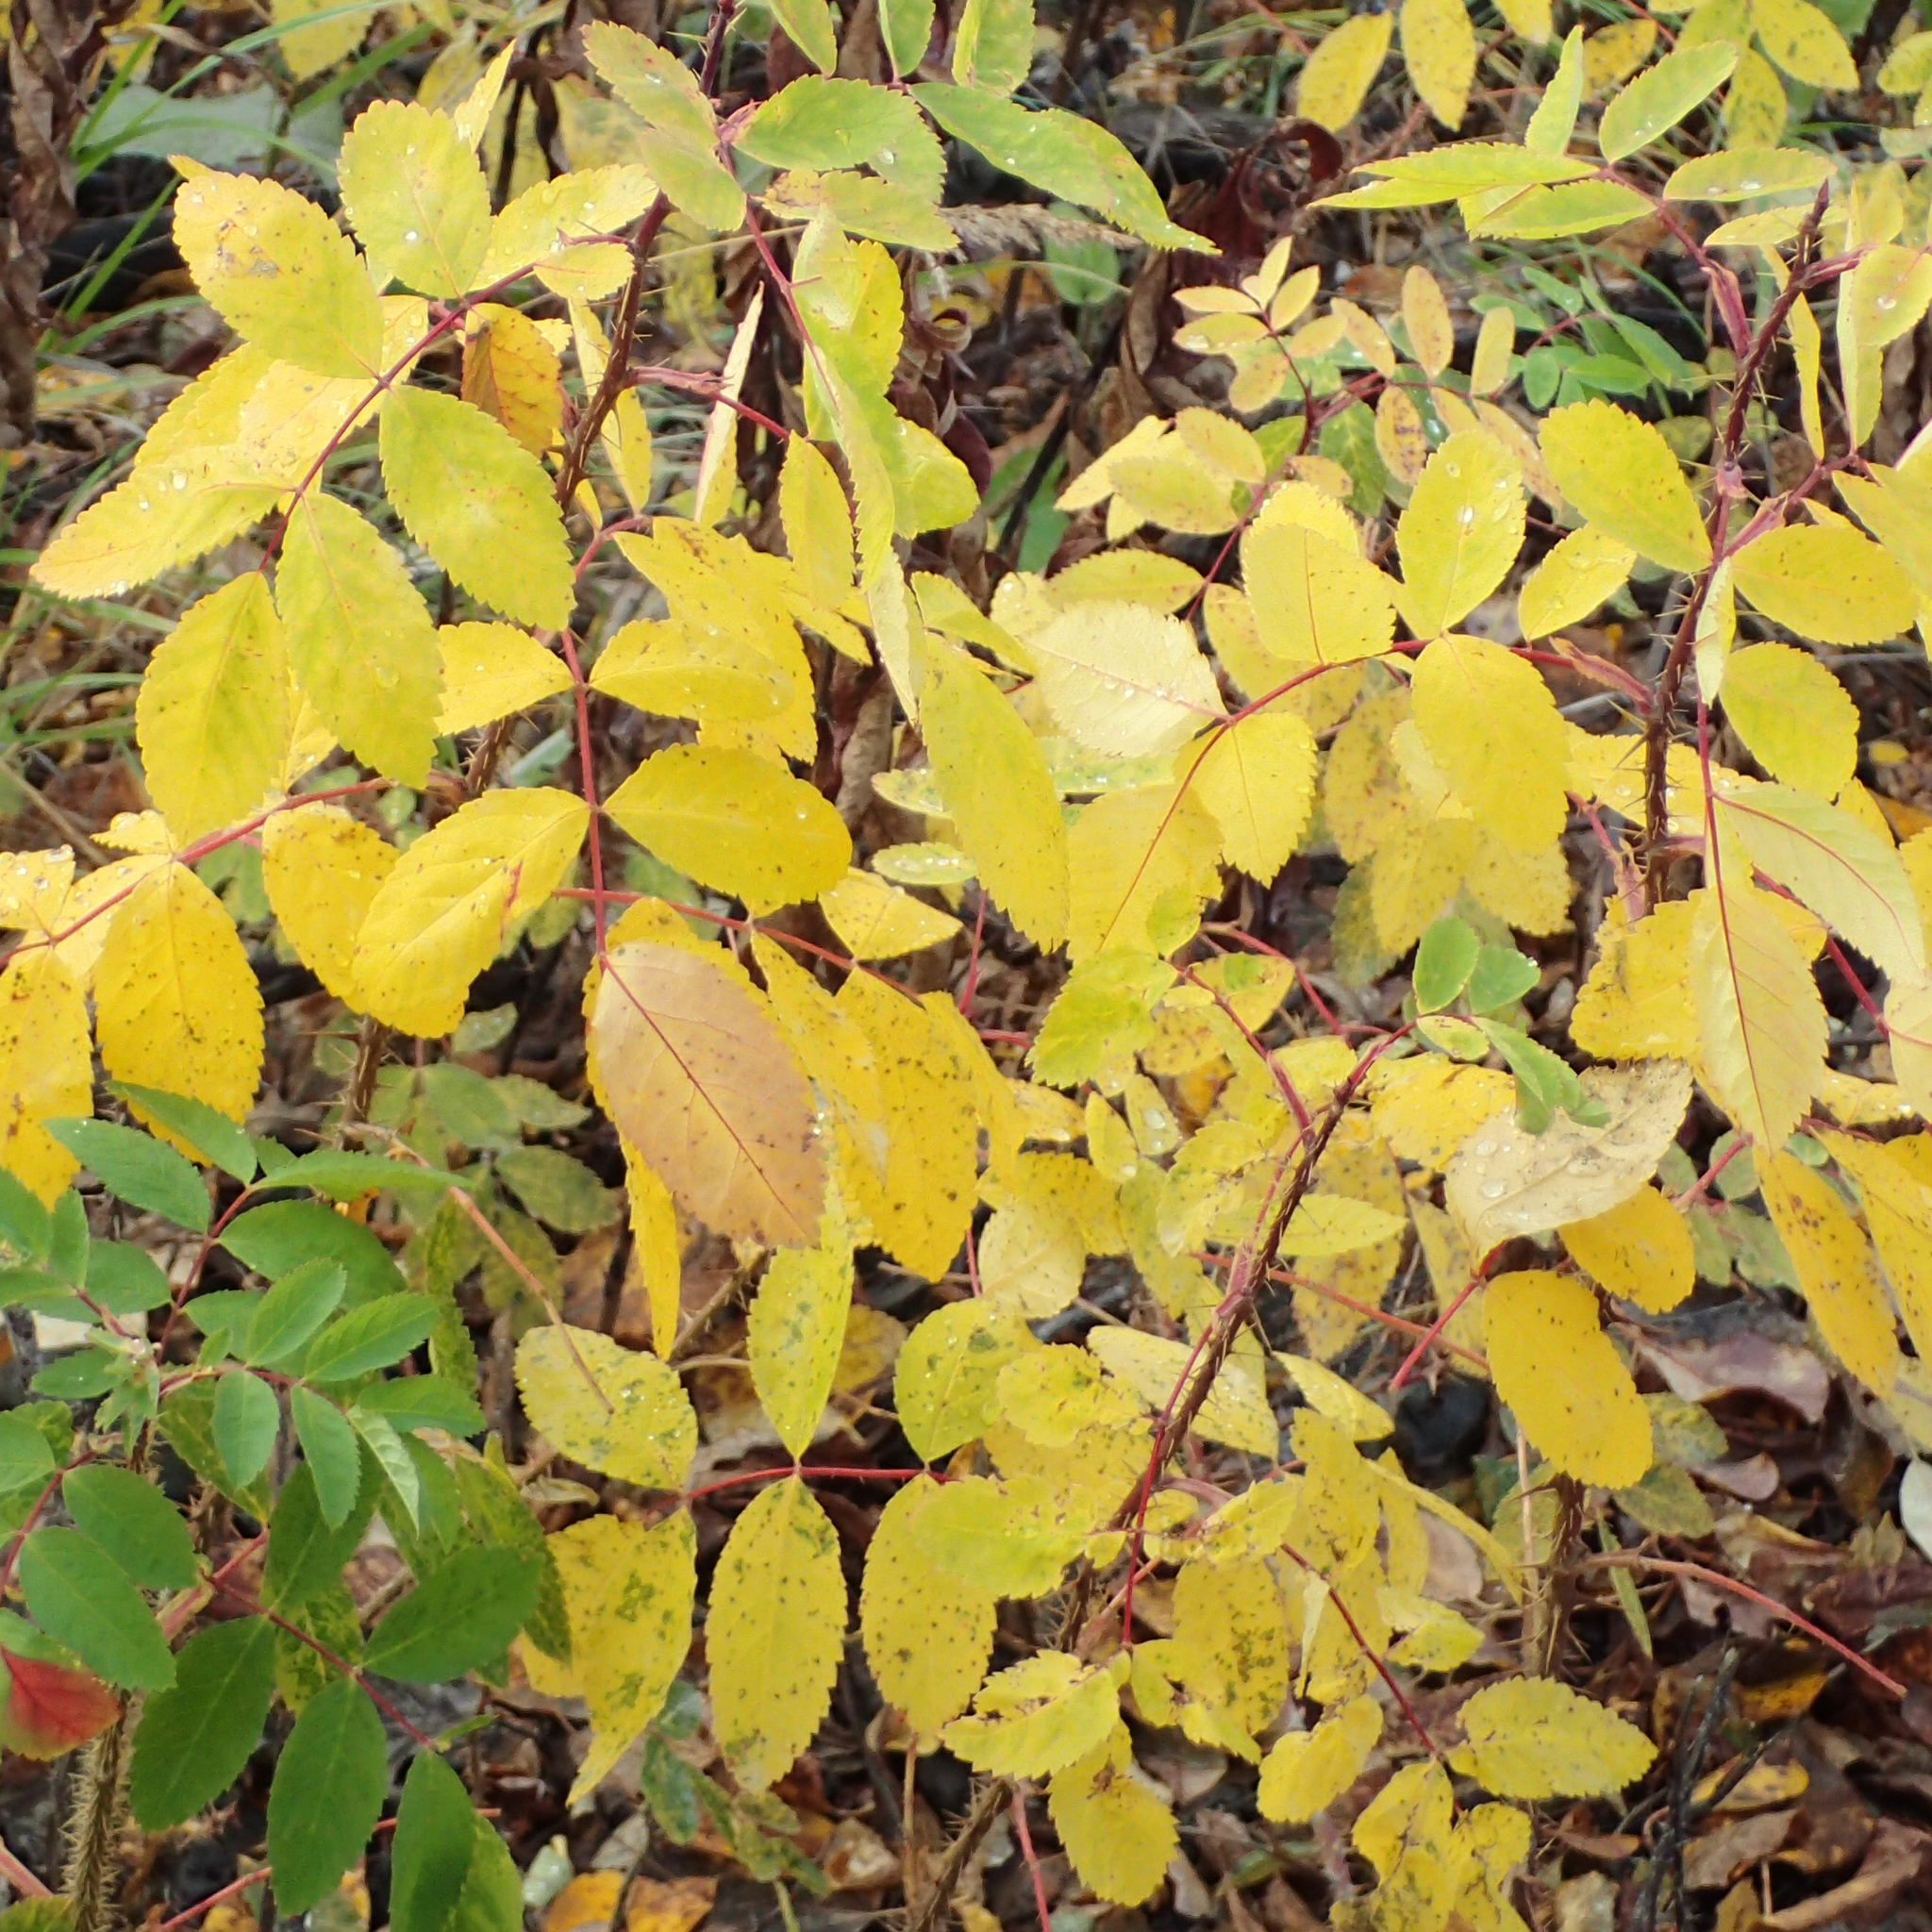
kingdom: Plantae
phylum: Tracheophyta
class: Magnoliopsida
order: Rosales
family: Rosaceae
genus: Rosa
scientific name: Rosa acicularis
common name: Prickly rose
